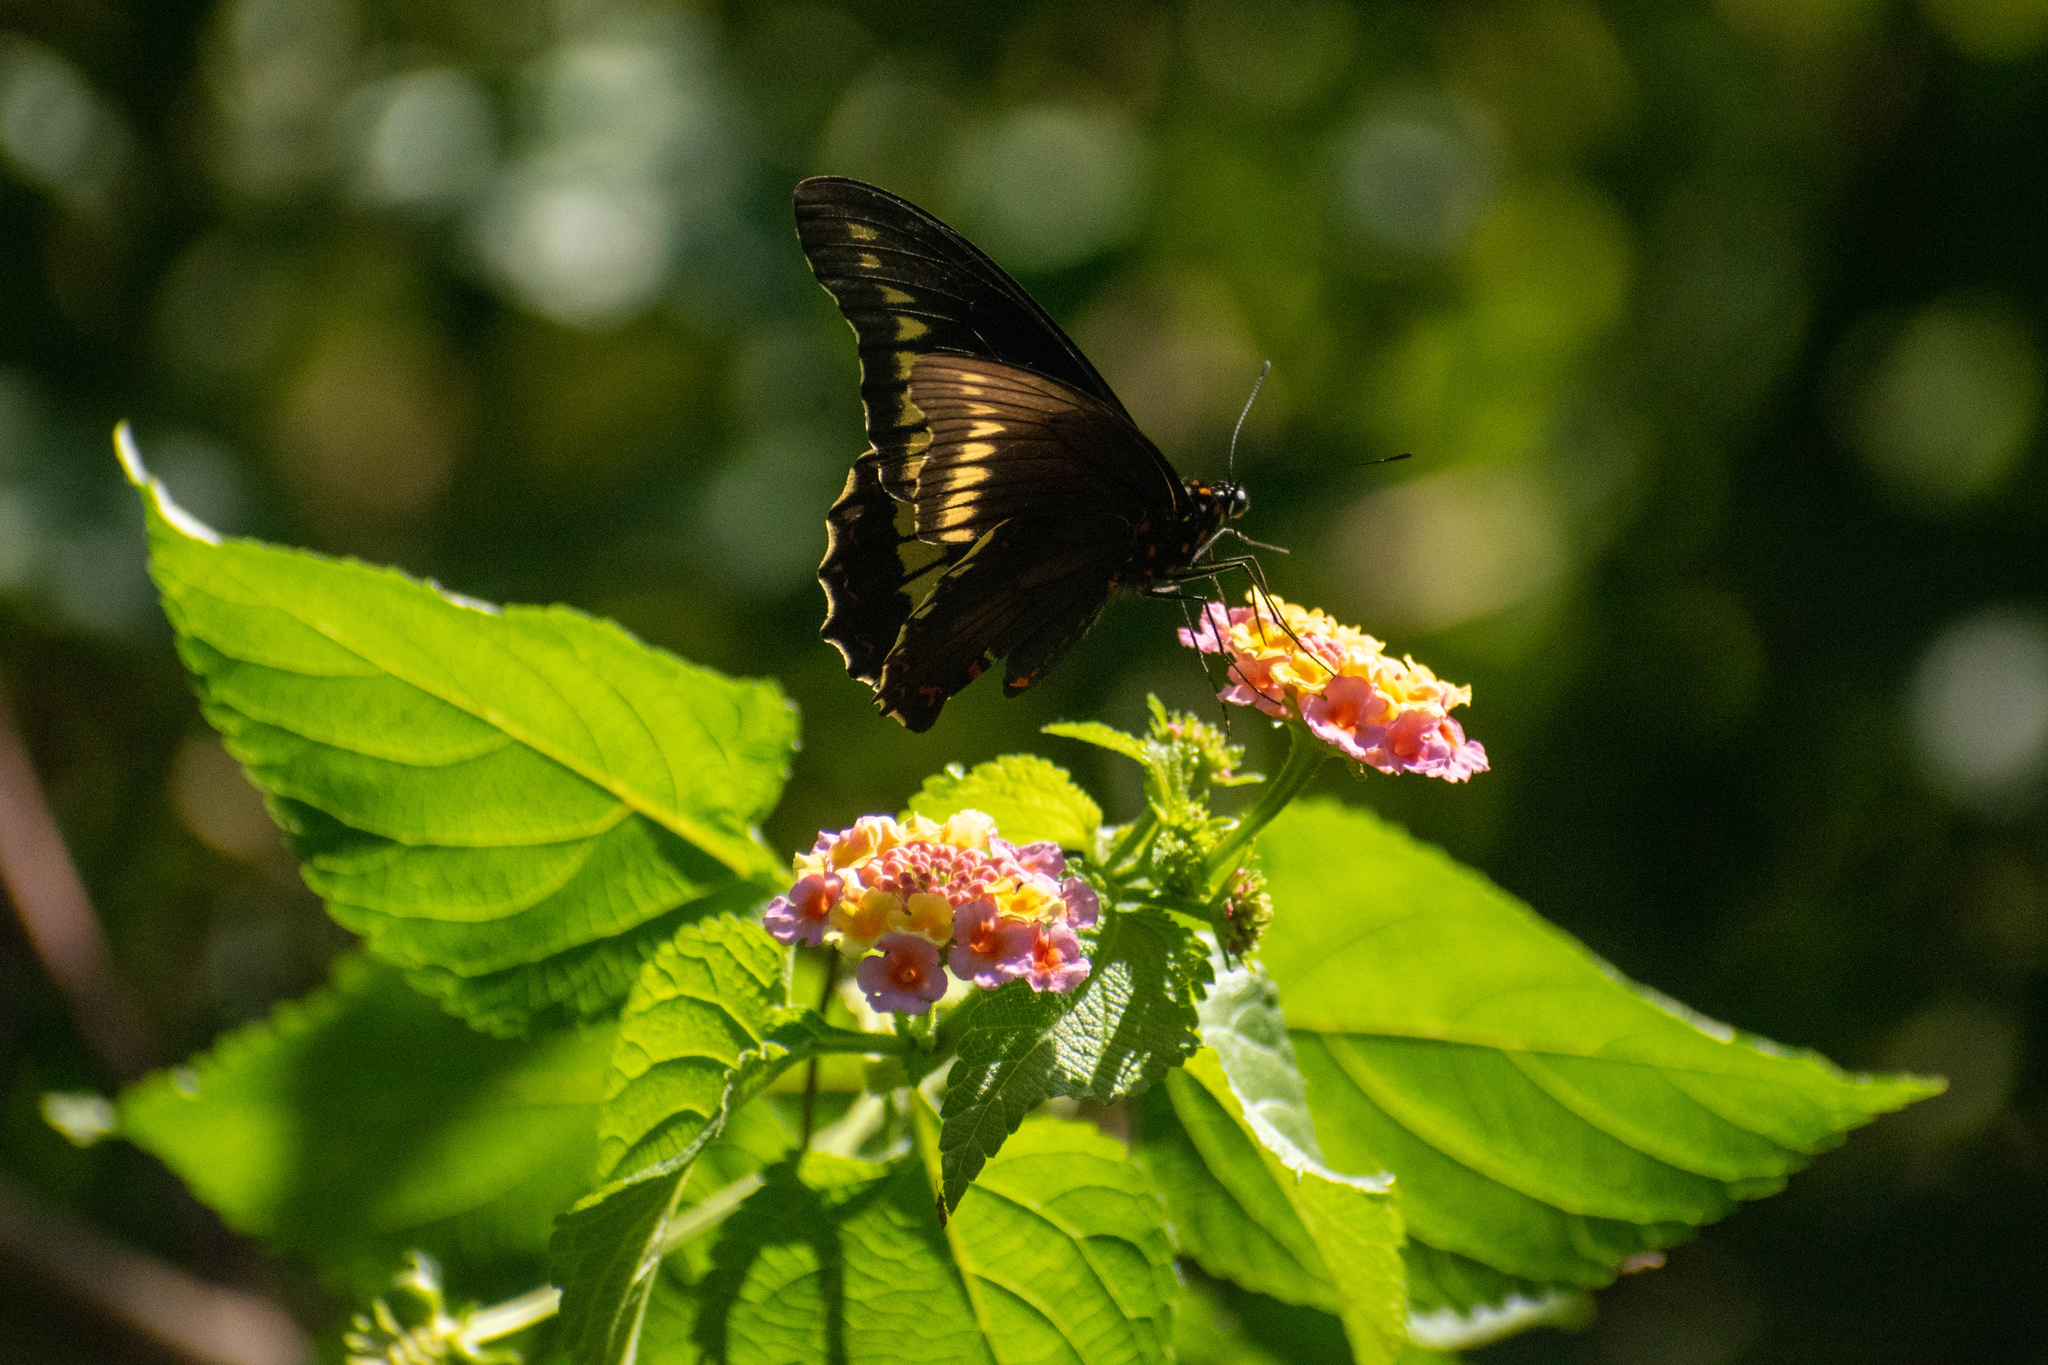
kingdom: Animalia
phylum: Arthropoda
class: Insecta
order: Lepidoptera
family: Papilionidae
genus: Battus
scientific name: Battus polydamas
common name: Polydamas swallowtail
